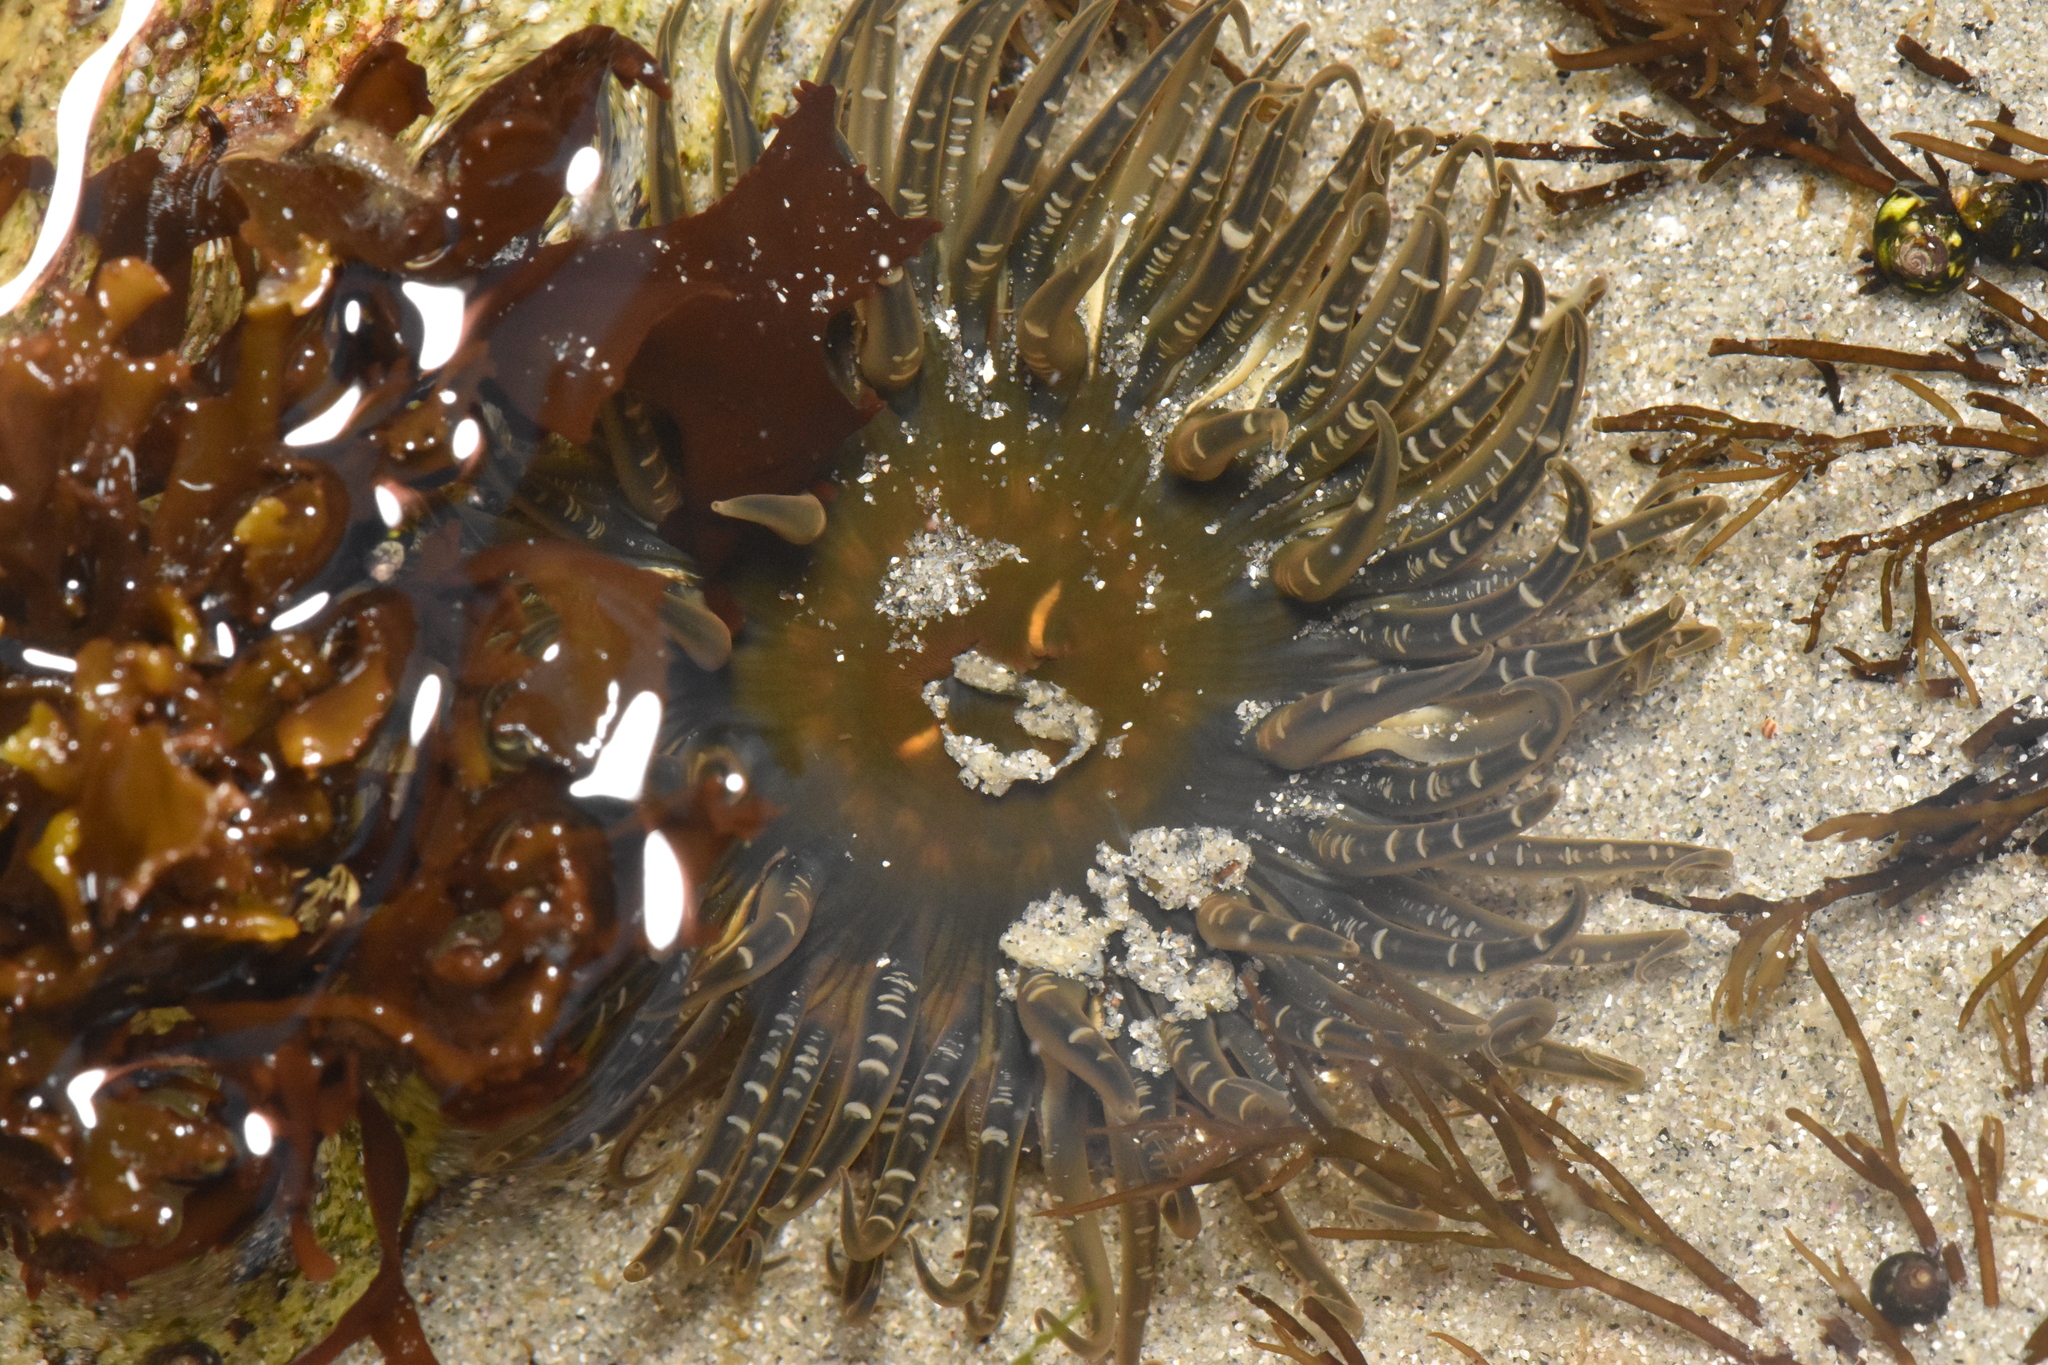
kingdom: Animalia
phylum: Cnidaria
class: Anthozoa
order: Actiniaria
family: Actiniidae
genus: Anthopleura
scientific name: Anthopleura artemisia
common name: Buried sea anemone
